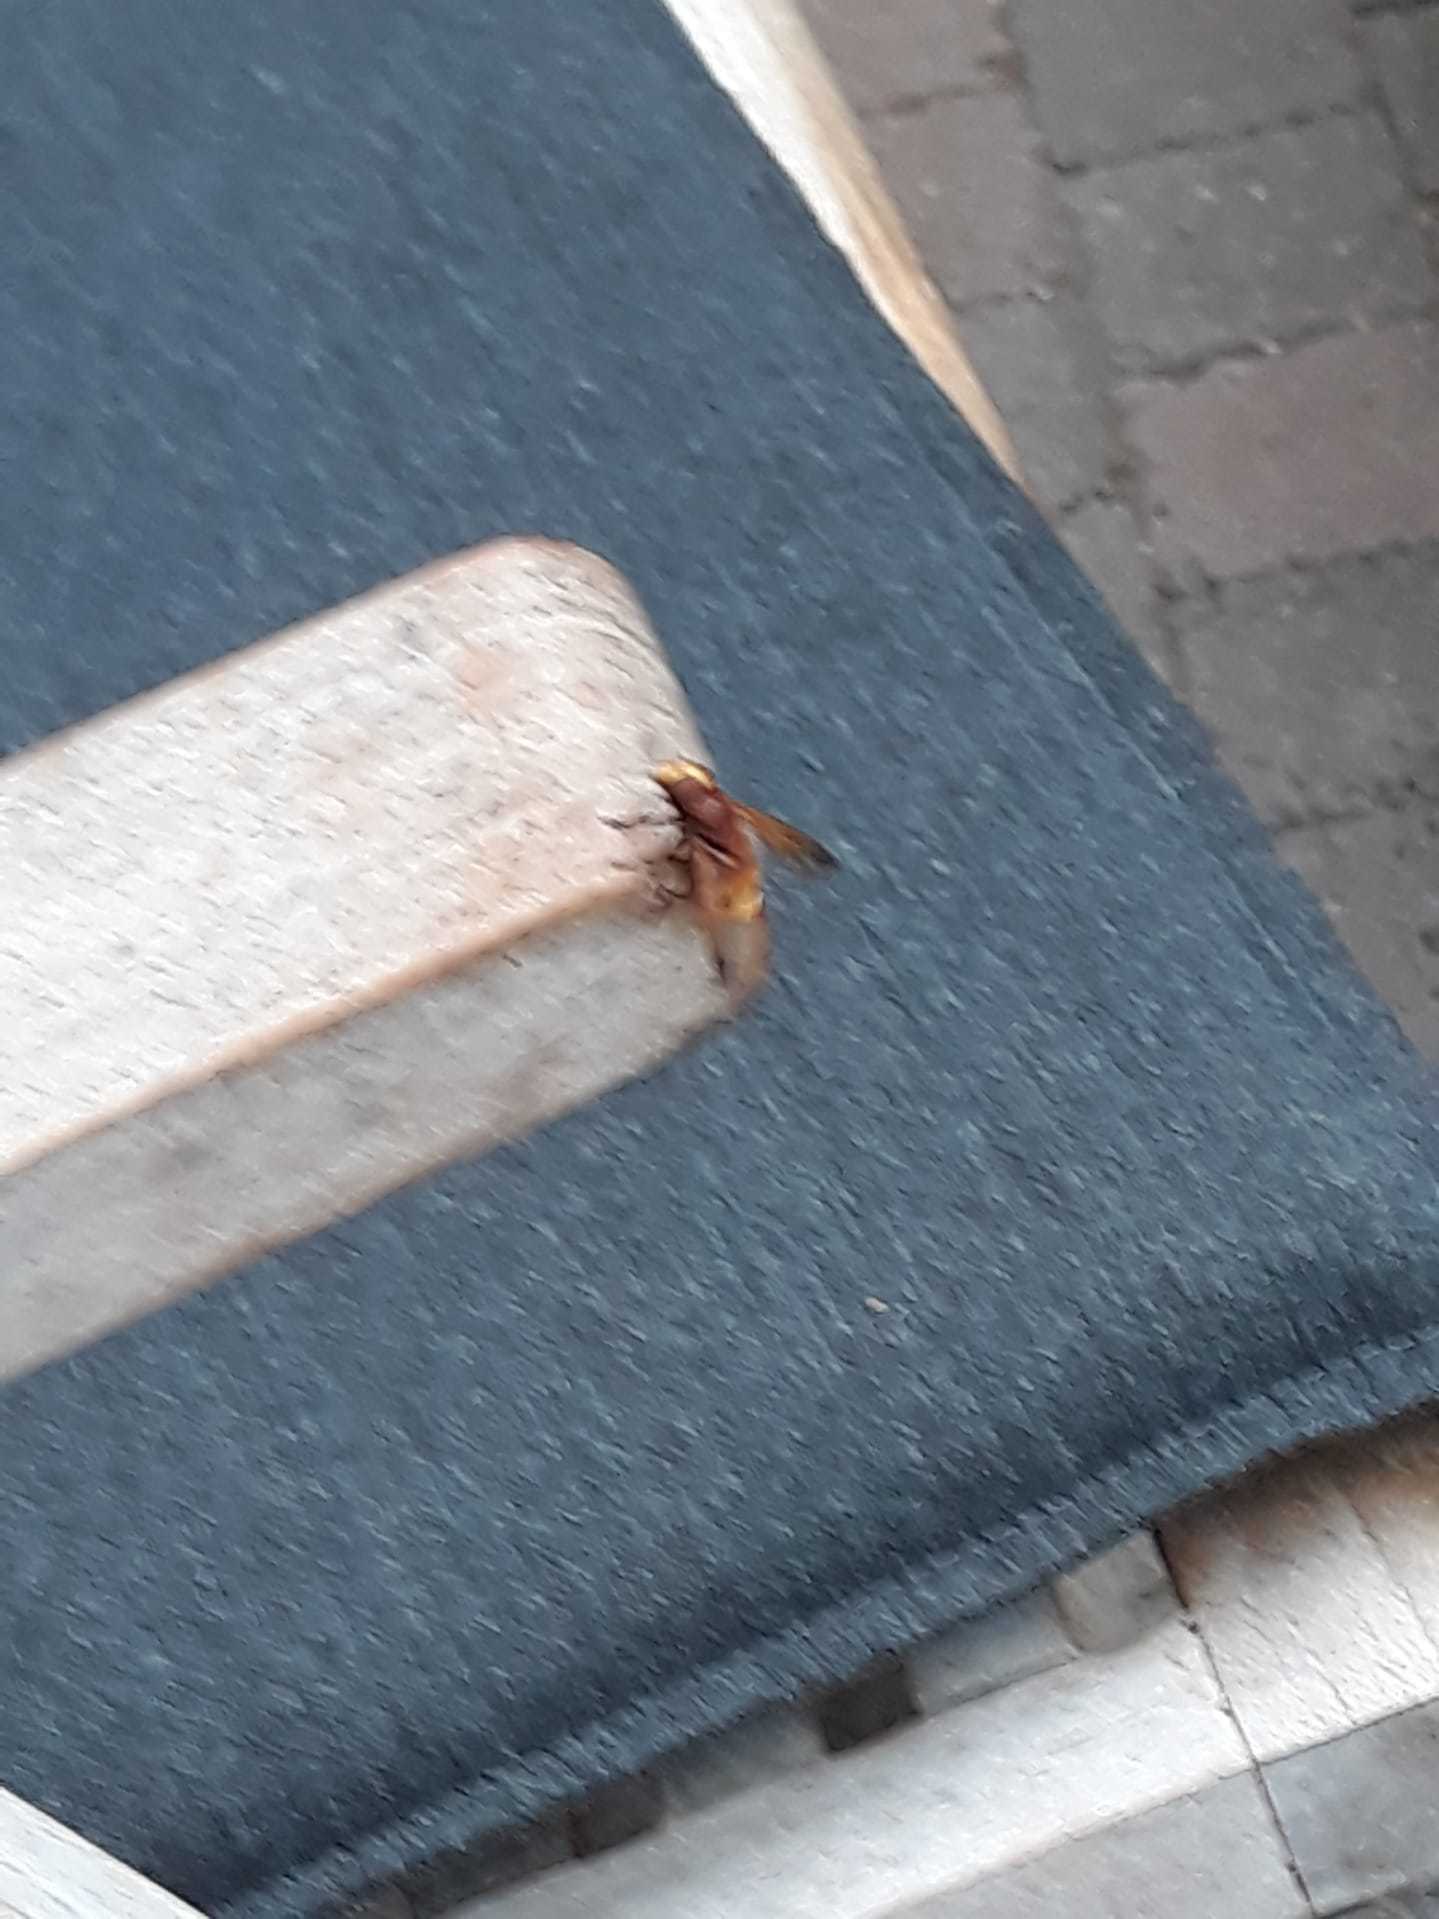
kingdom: Animalia
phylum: Arthropoda
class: Insecta
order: Diptera
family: Syrphidae
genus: Volucella
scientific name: Volucella zonaria
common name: Hornet hoverfly
